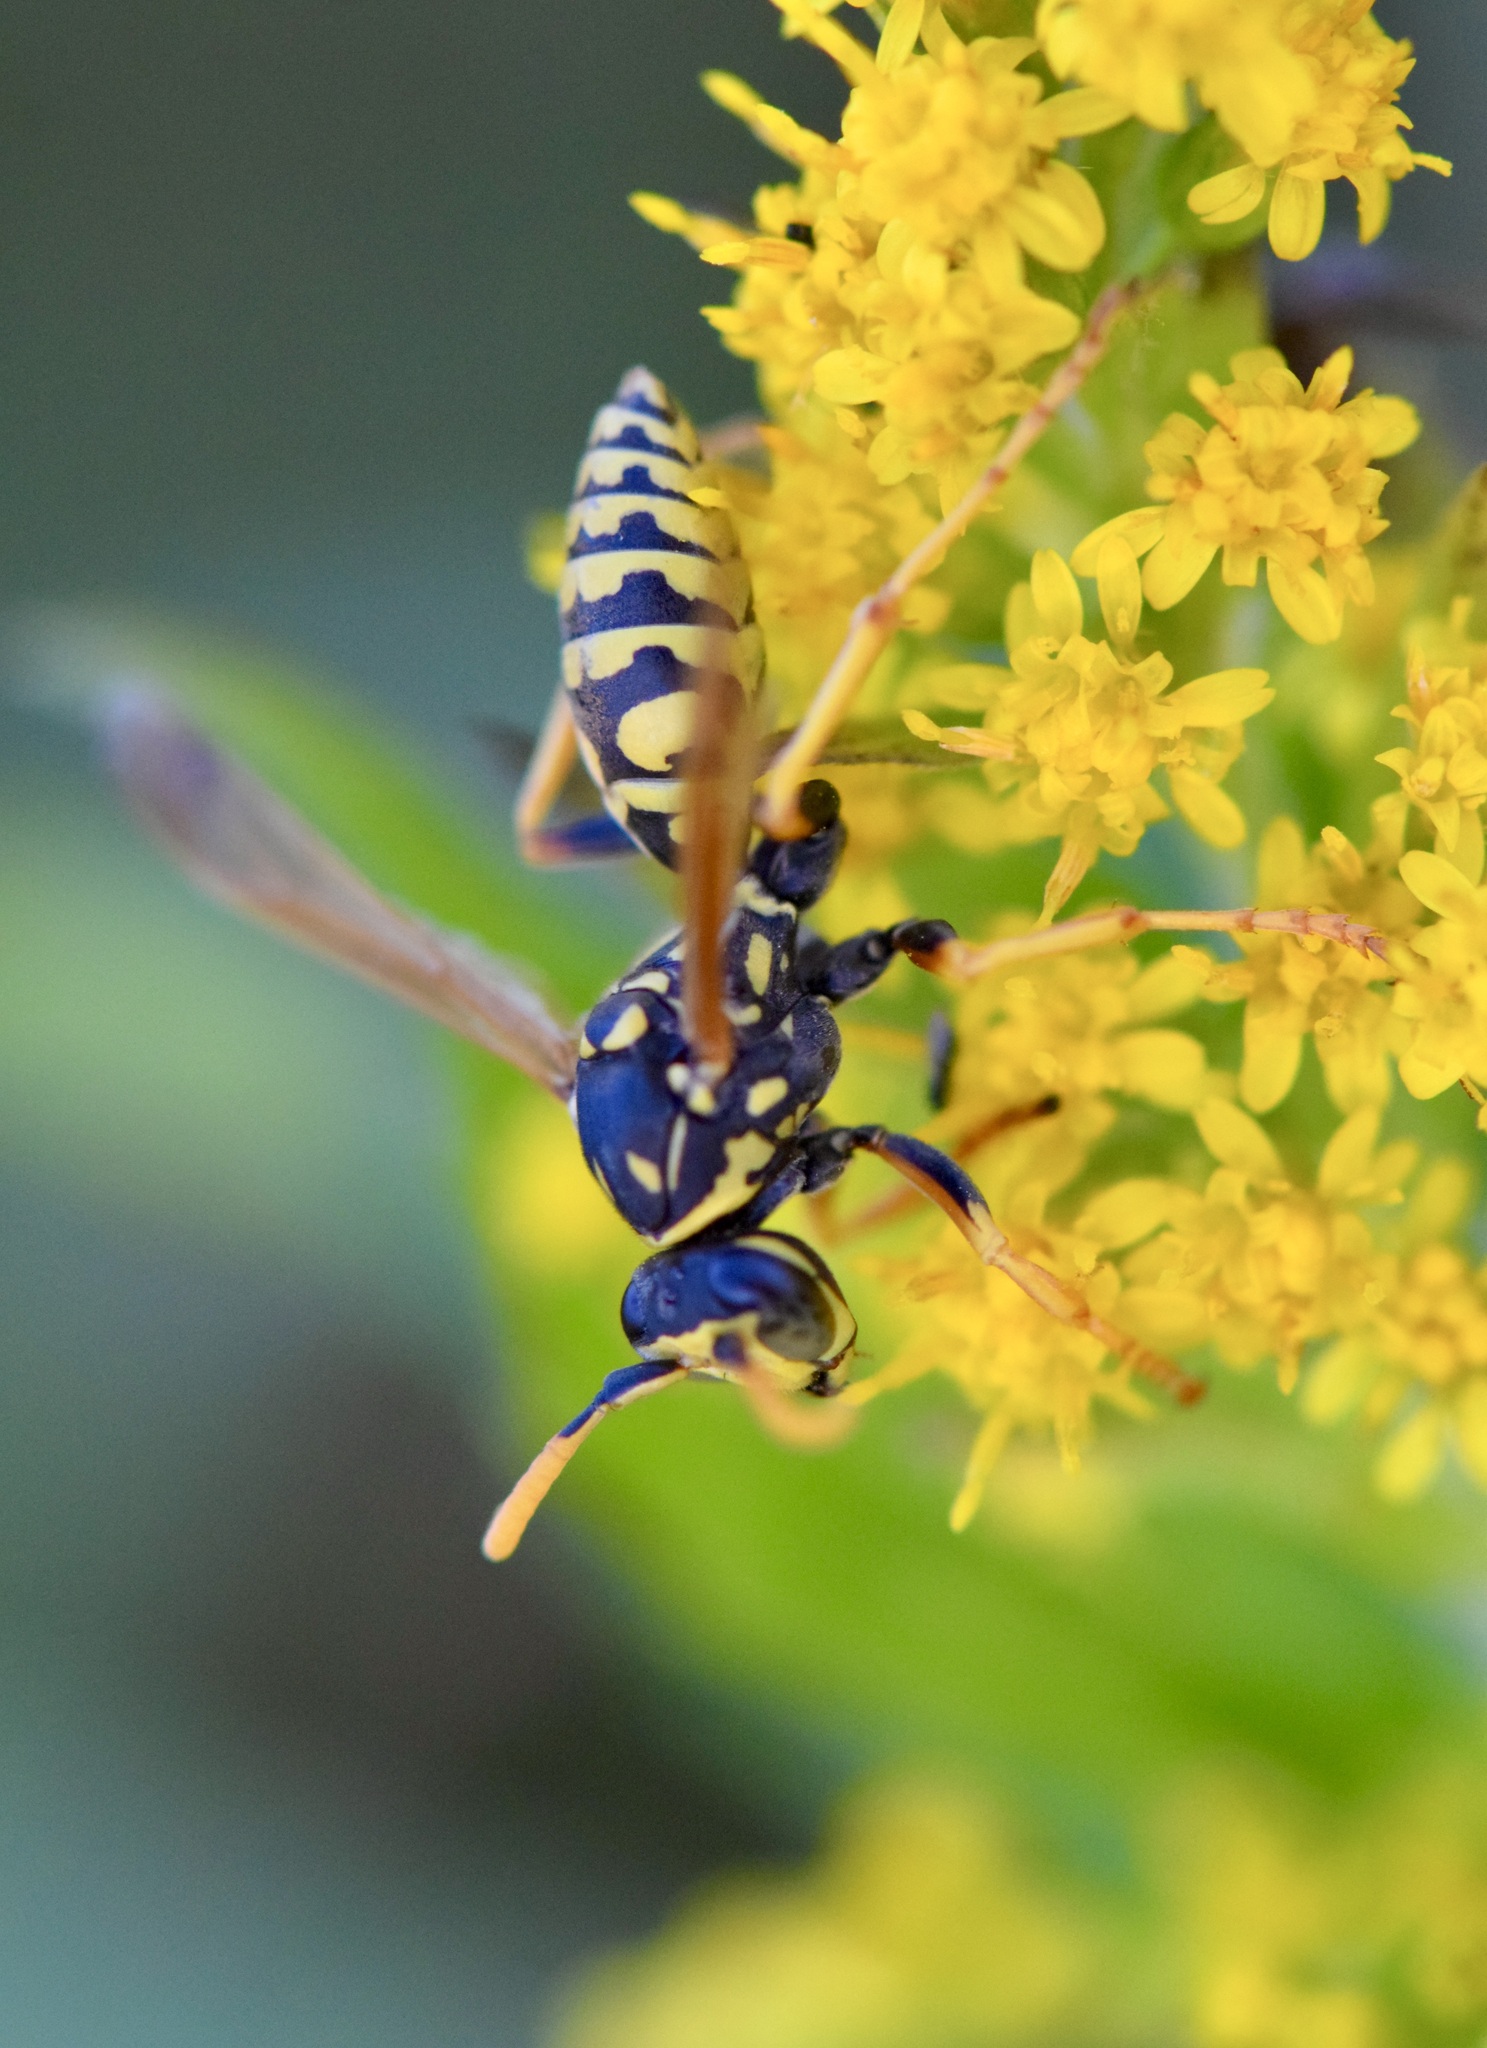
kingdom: Animalia
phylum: Arthropoda
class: Insecta
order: Hymenoptera
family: Eumenidae
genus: Polistes
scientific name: Polistes dominula
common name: Paper wasp
